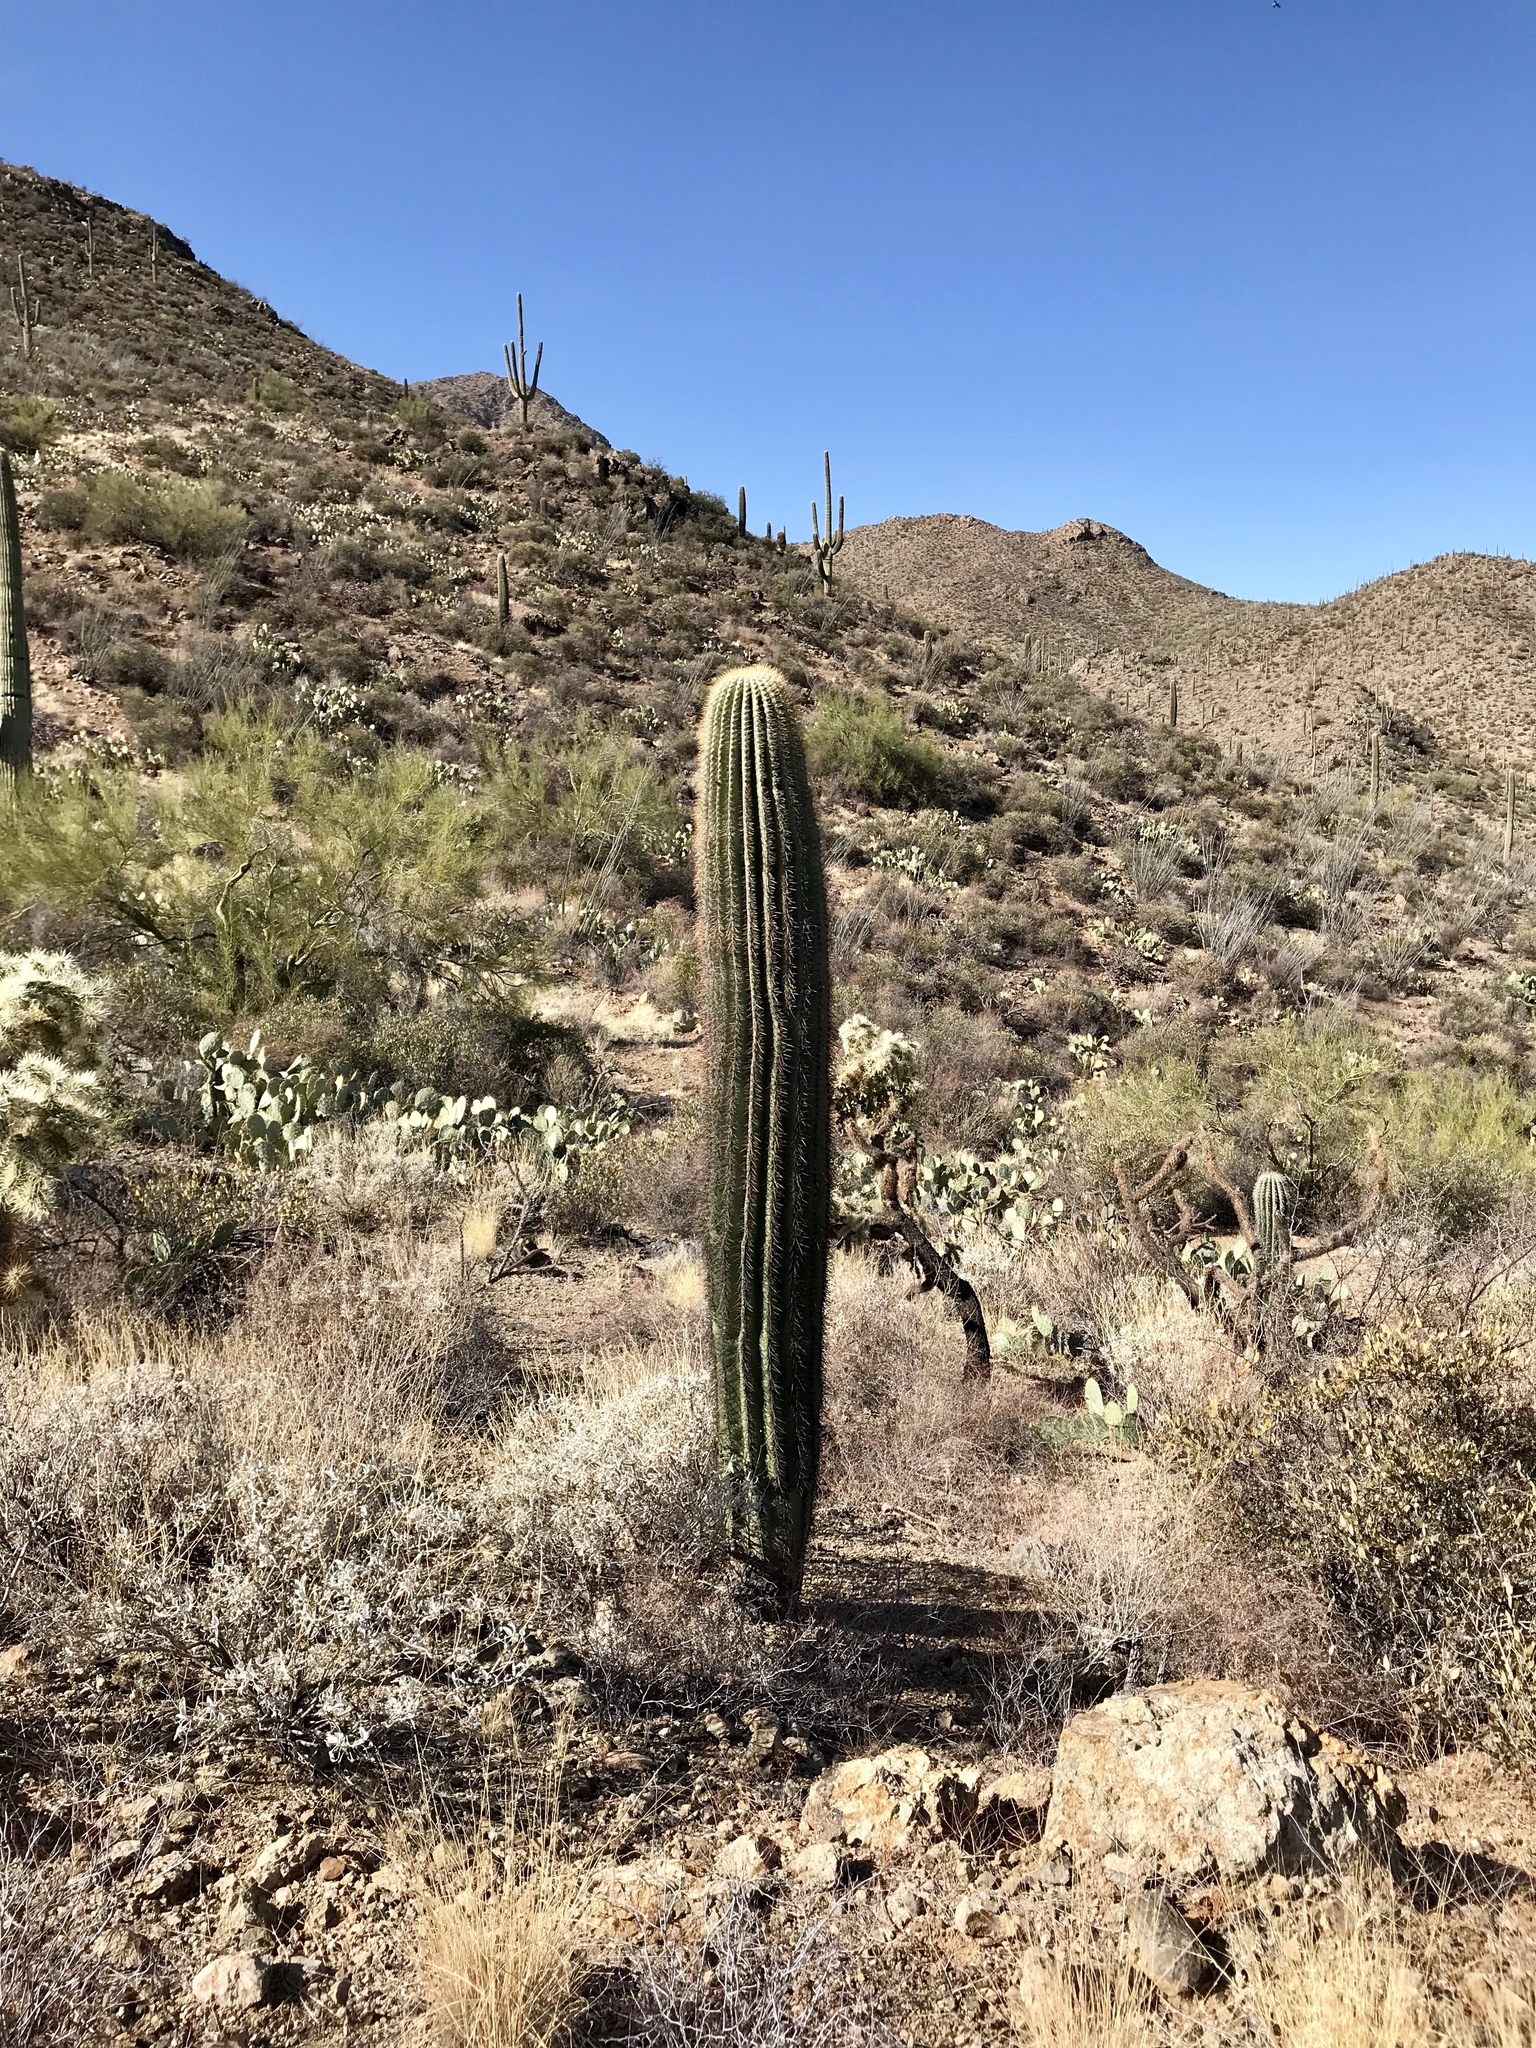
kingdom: Plantae
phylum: Tracheophyta
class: Magnoliopsida
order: Caryophyllales
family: Cactaceae
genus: Carnegiea
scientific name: Carnegiea gigantea
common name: Saguaro
